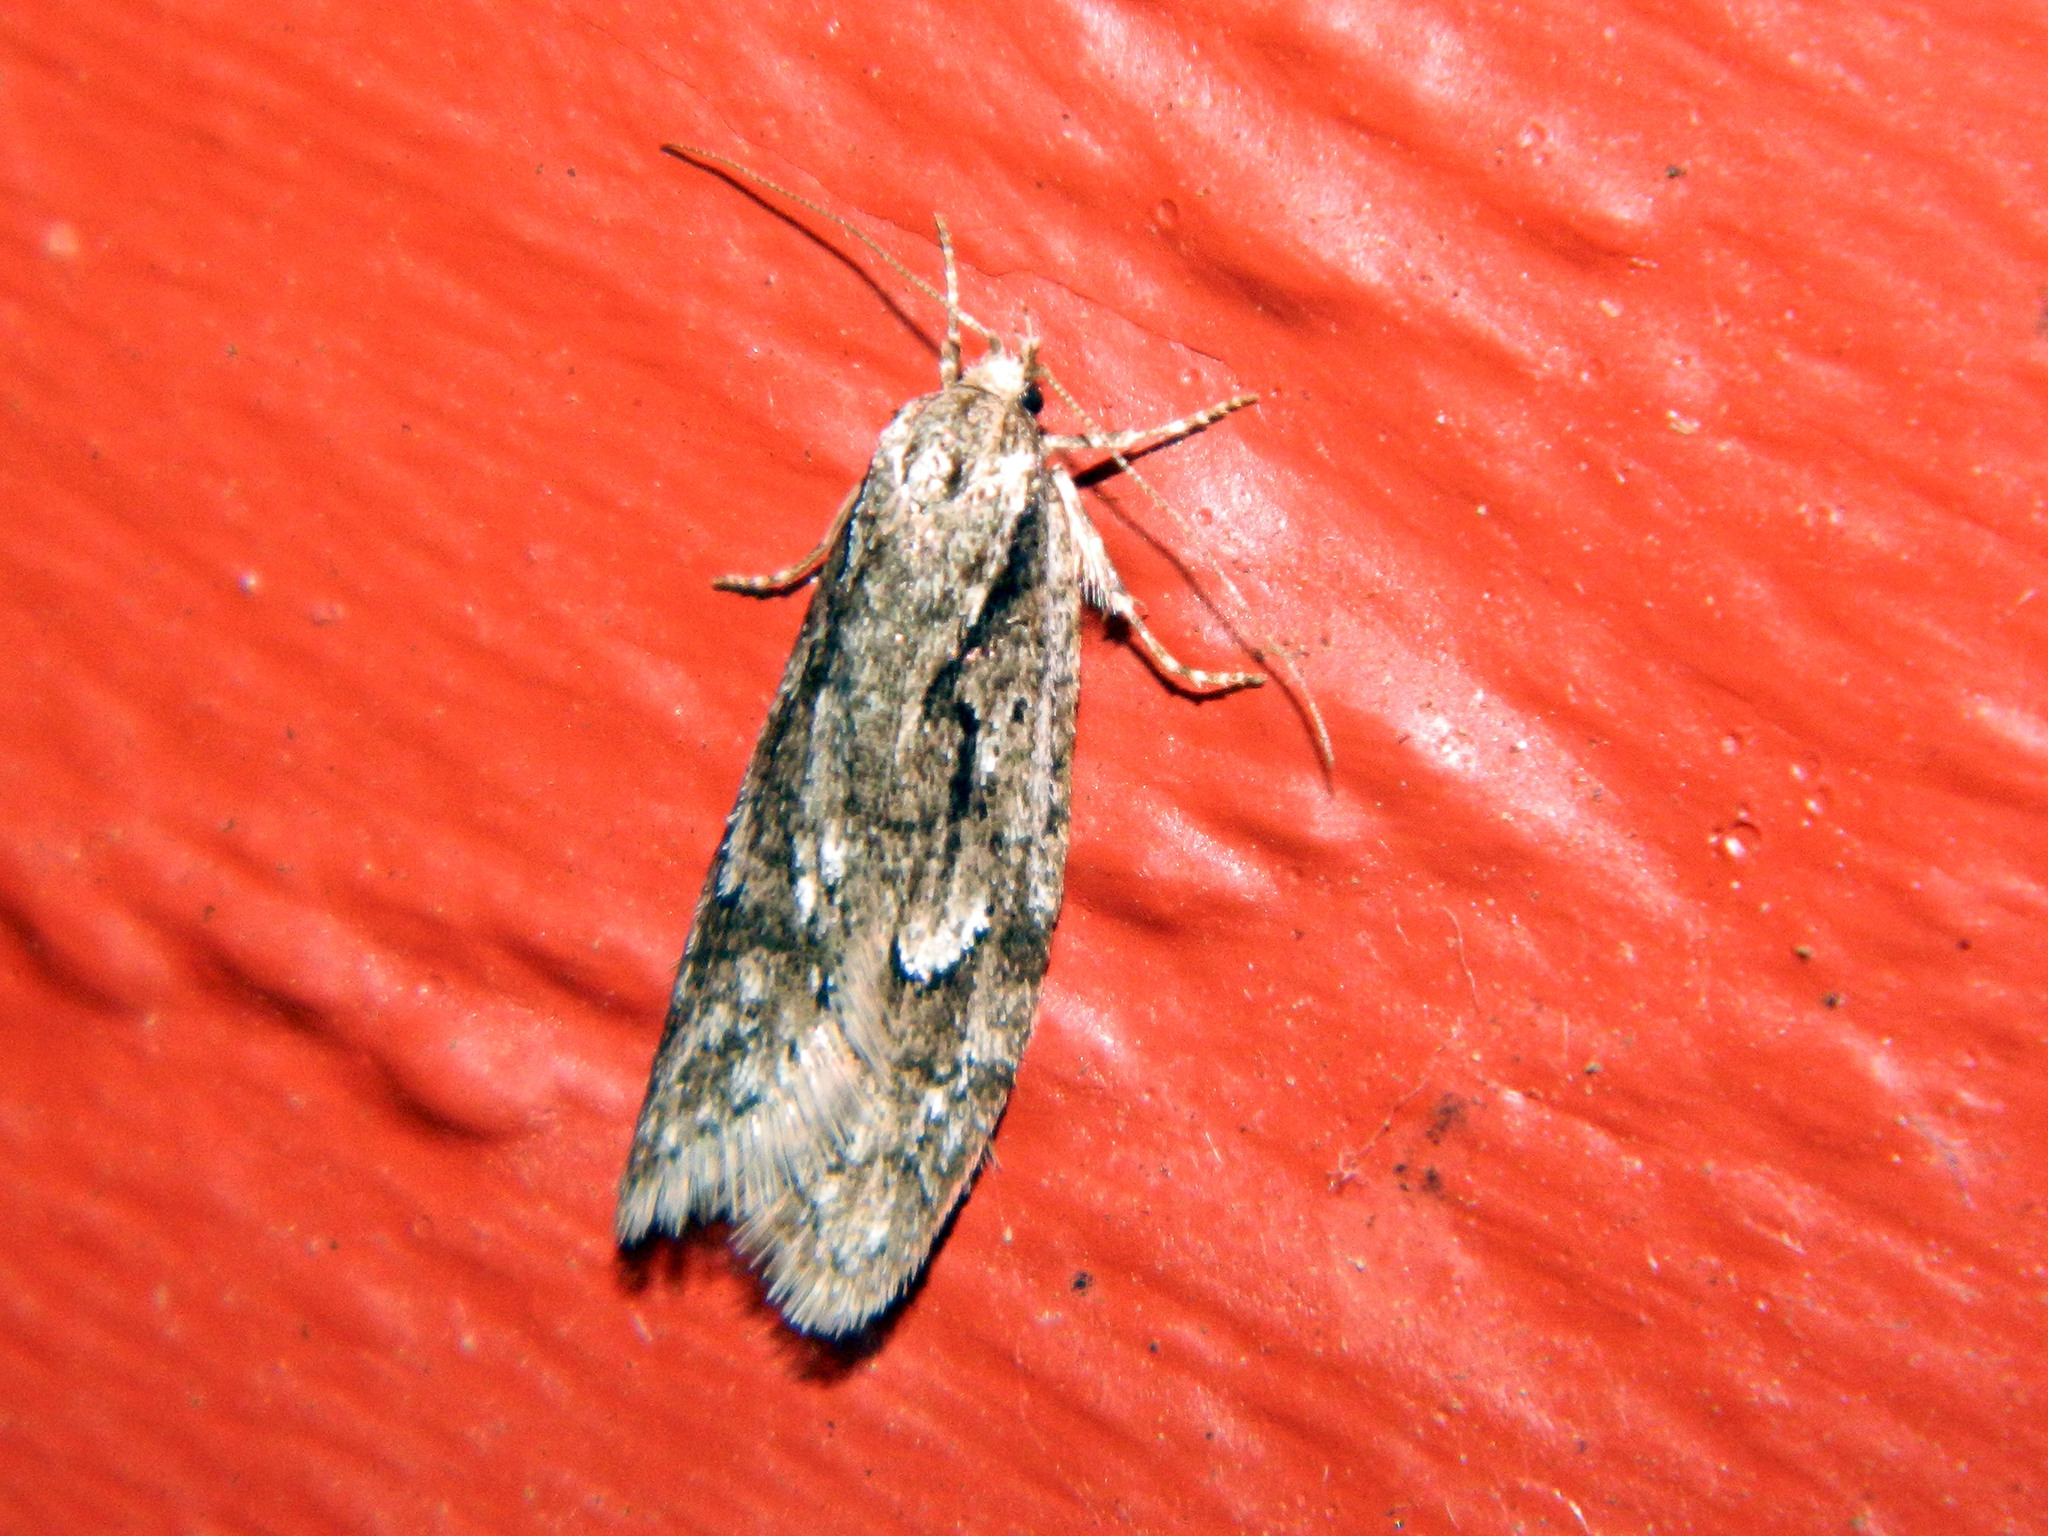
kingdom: Animalia
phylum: Arthropoda
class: Insecta
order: Lepidoptera
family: Depressariidae
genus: Semioscopis
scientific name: Semioscopis aurorella
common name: Aurora flatbody moth
